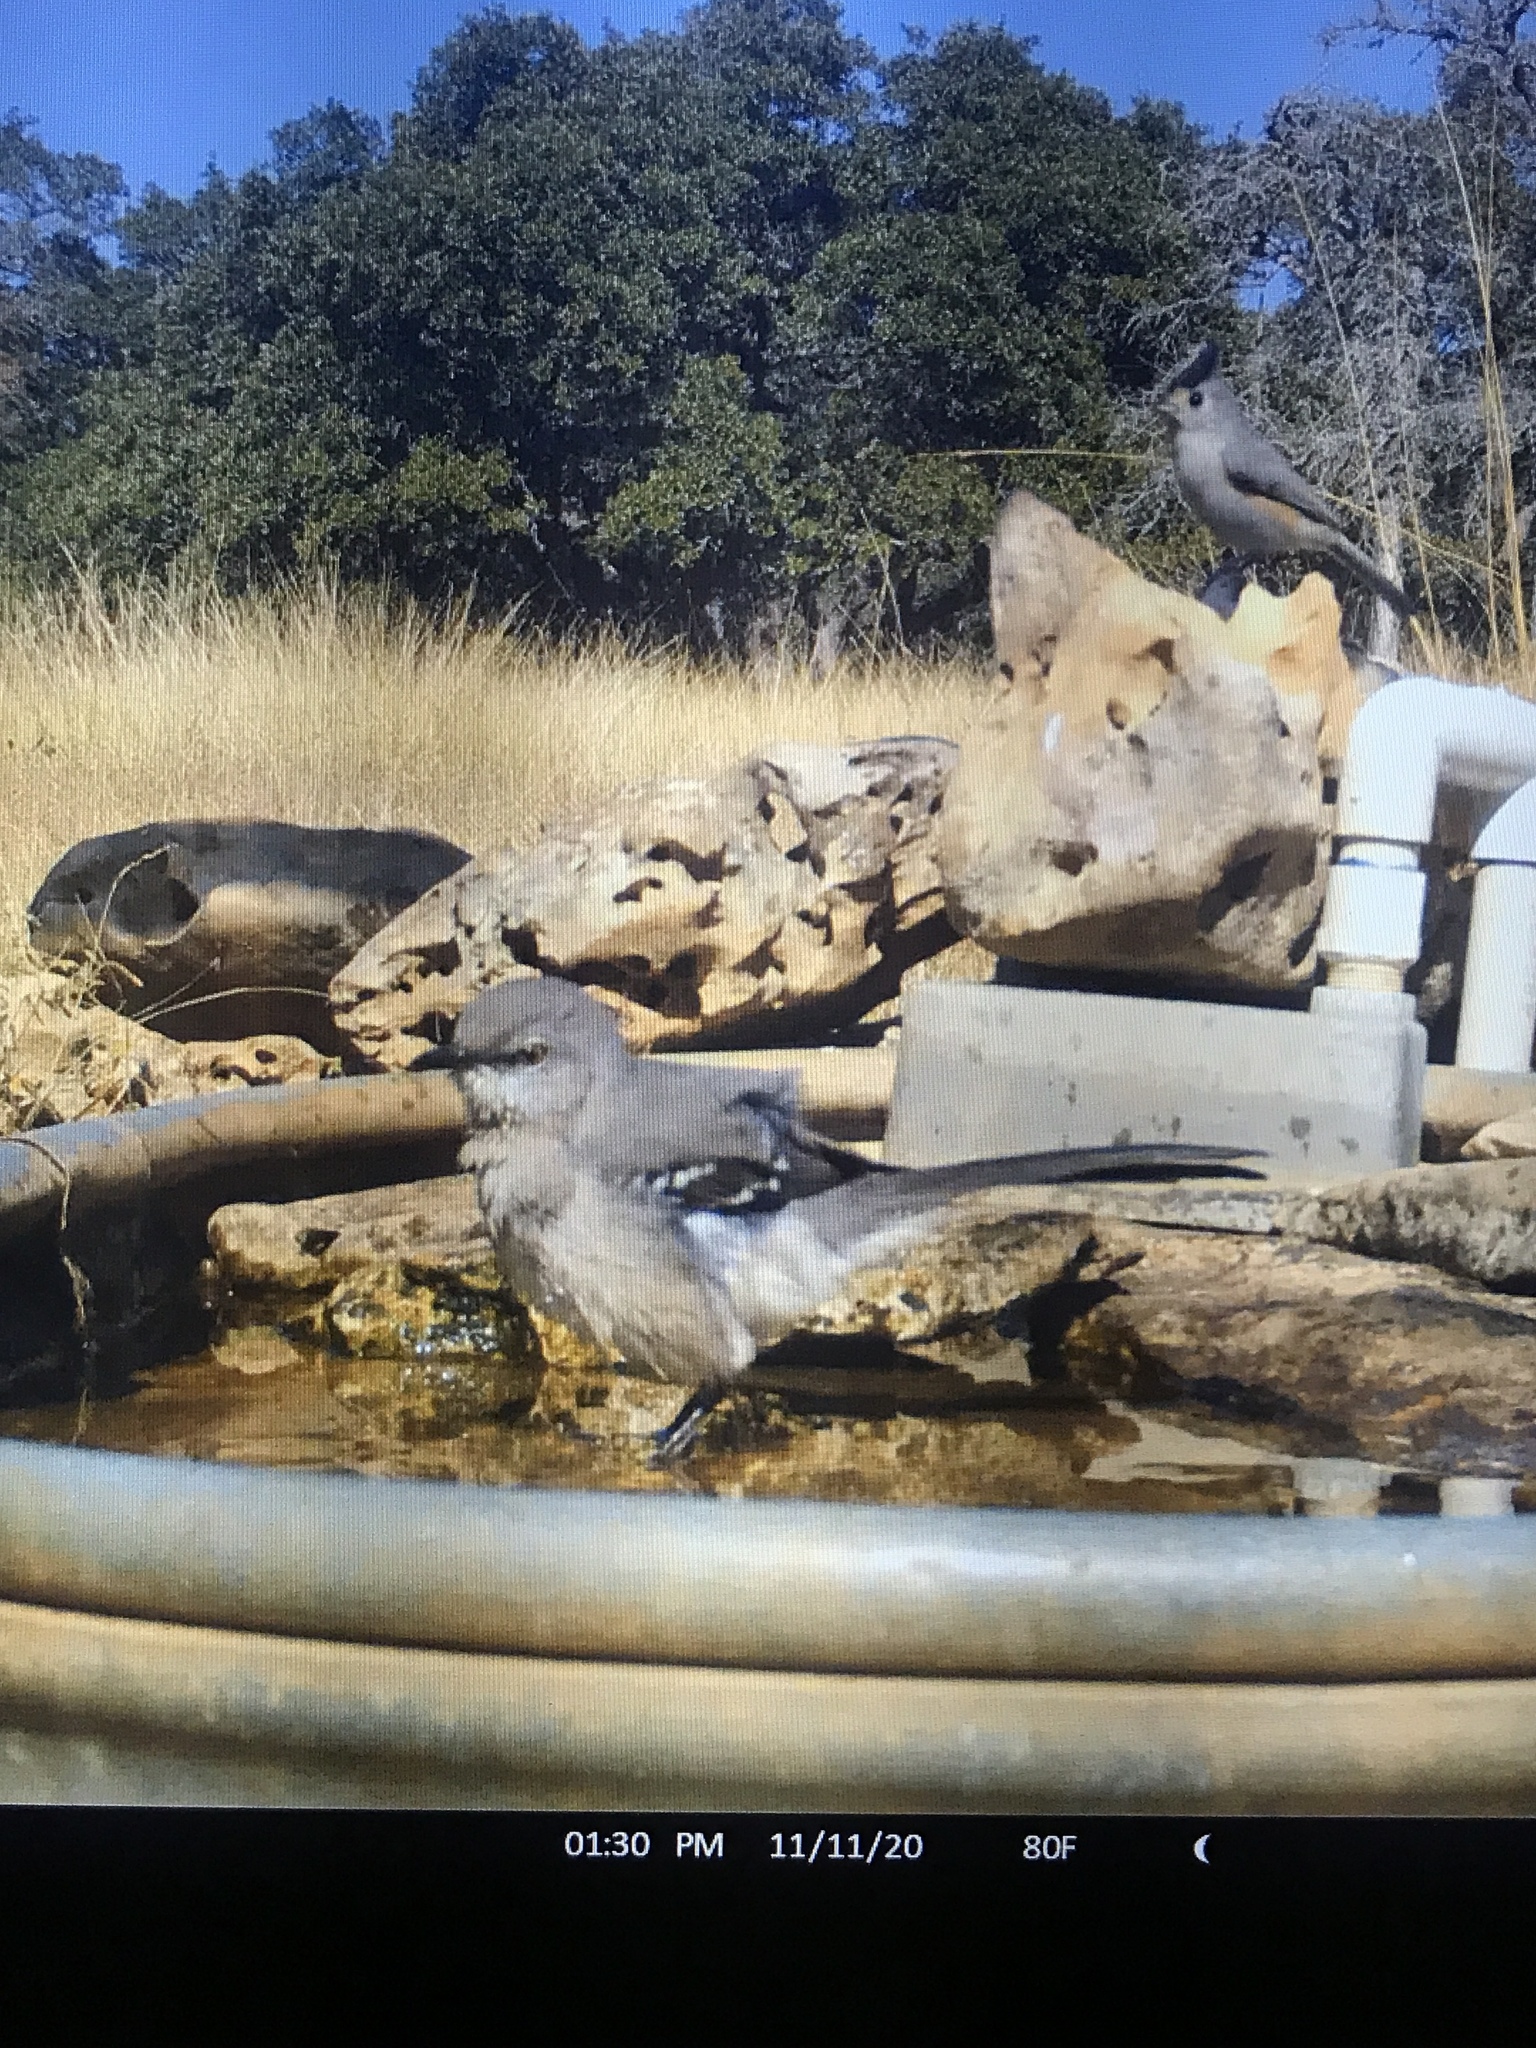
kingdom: Animalia
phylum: Chordata
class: Aves
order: Passeriformes
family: Mimidae
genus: Mimus
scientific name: Mimus polyglottos
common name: Northern mockingbird
